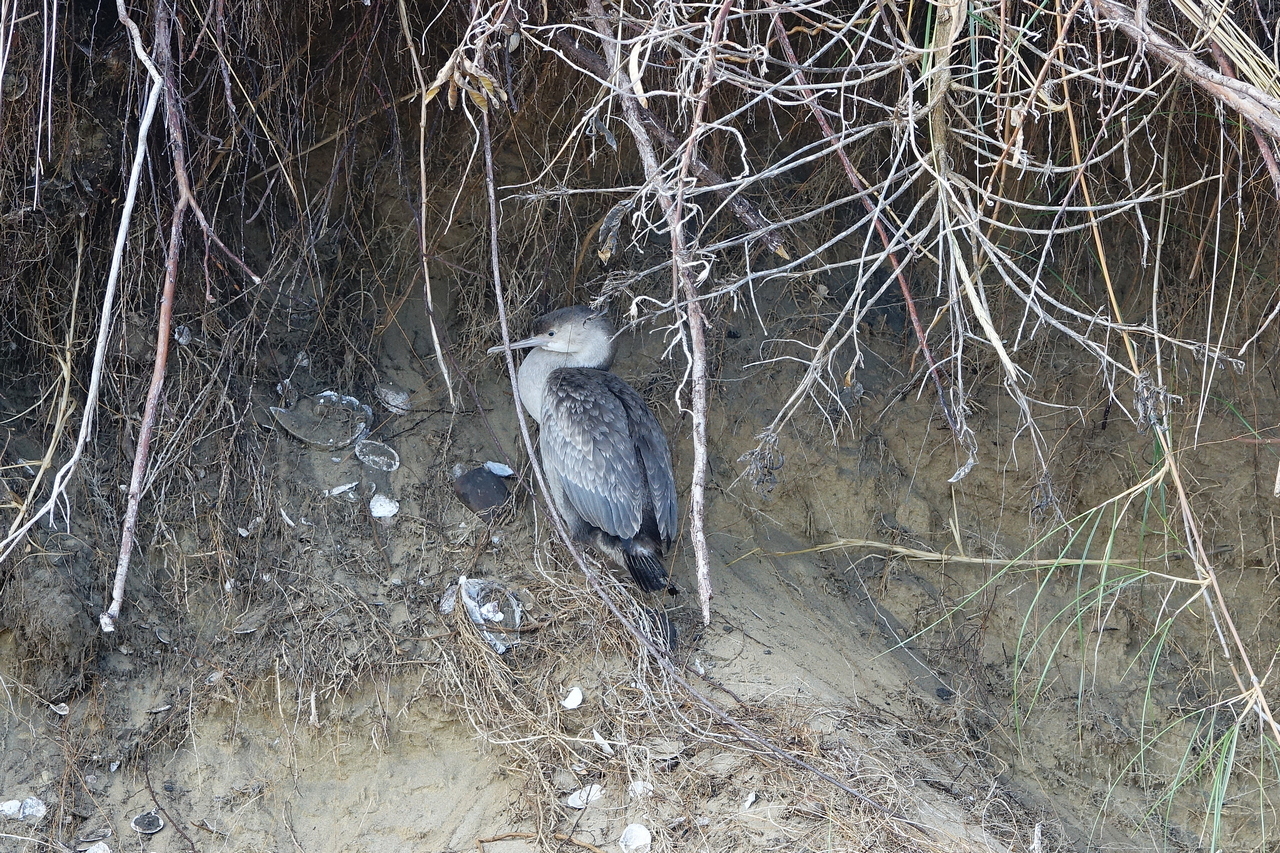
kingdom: Animalia
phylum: Chordata
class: Aves
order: Suliformes
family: Phalacrocoracidae
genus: Phalacrocorax
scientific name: Phalacrocorax punctatus
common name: Spotted shag
